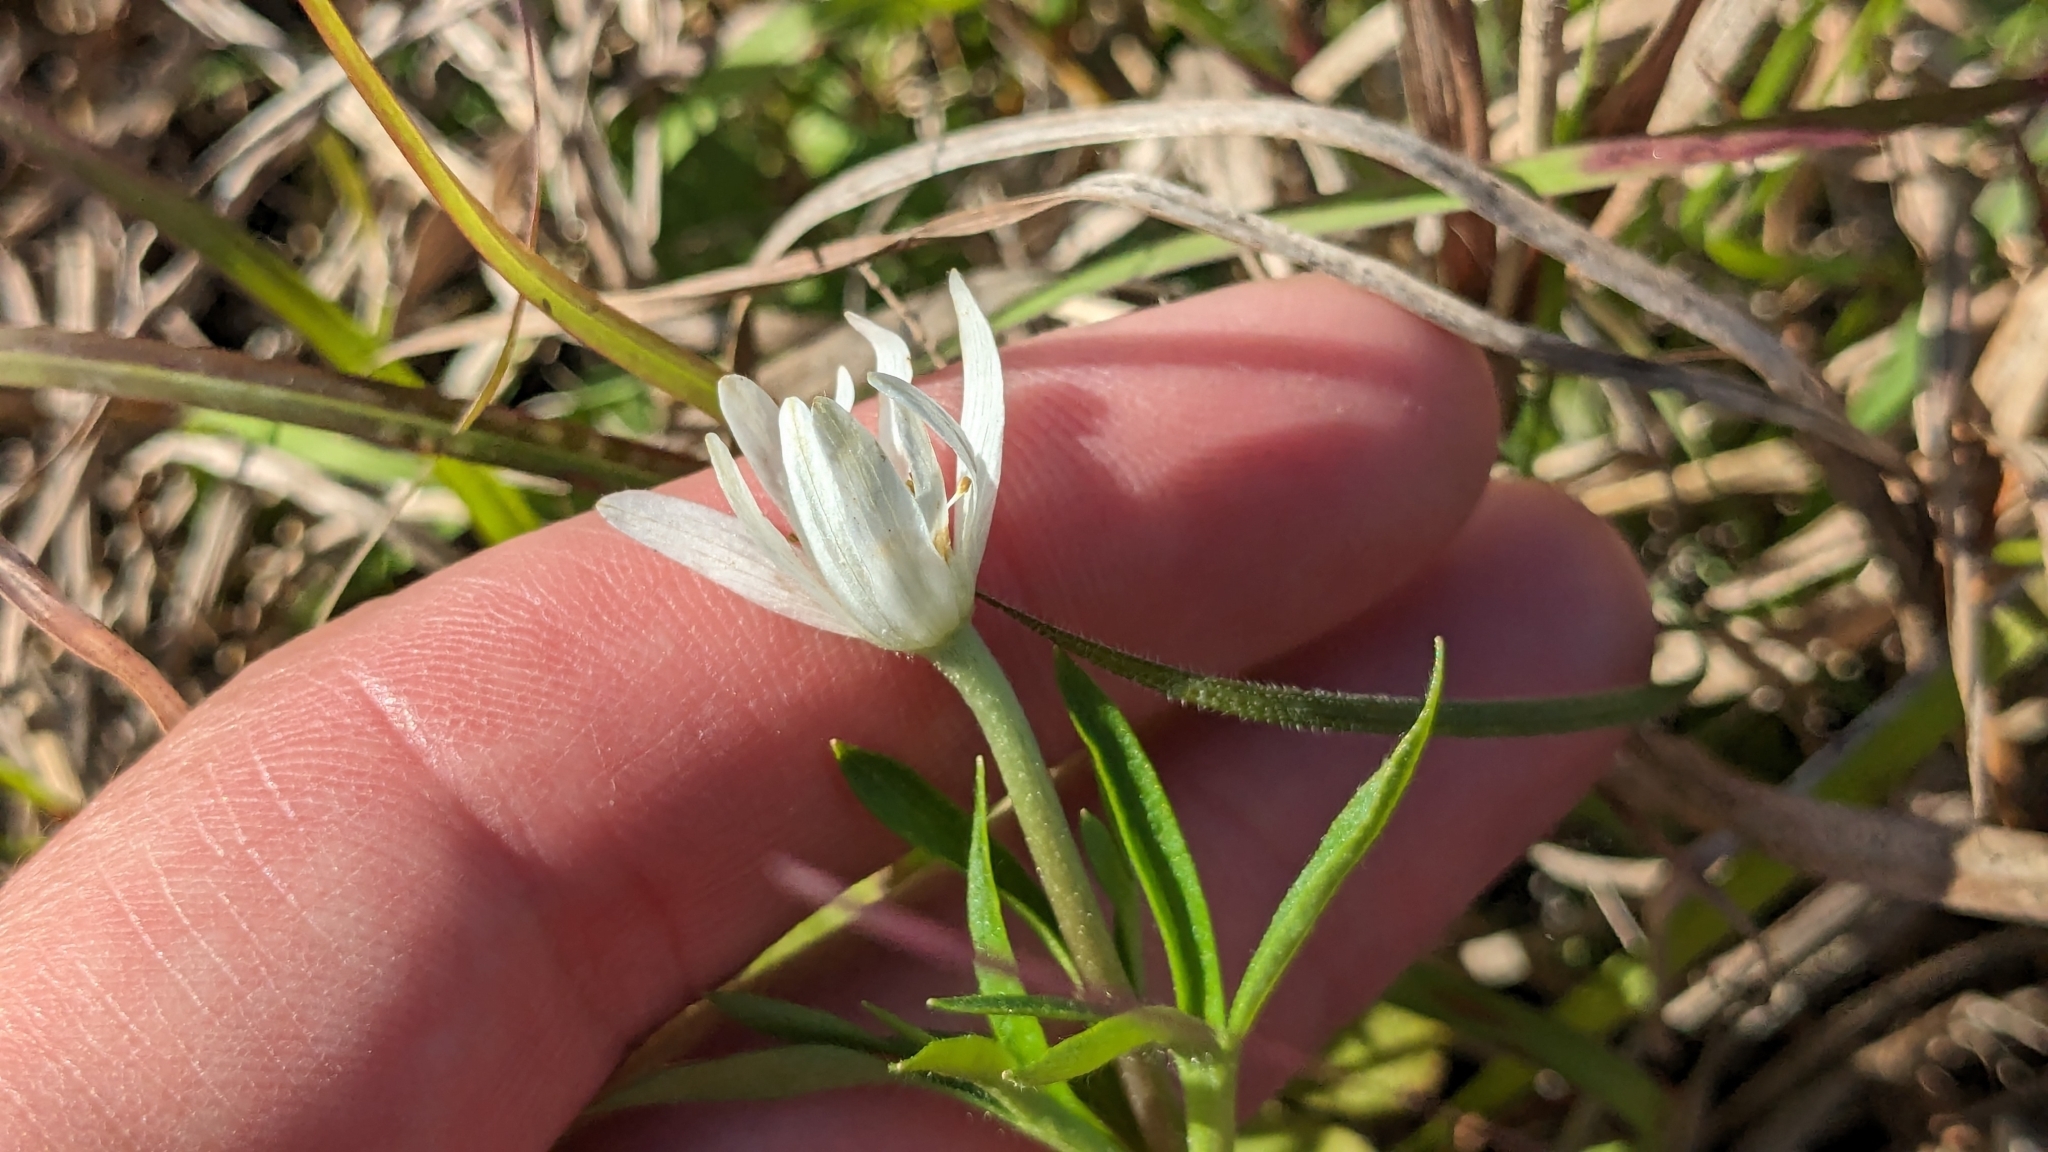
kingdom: Plantae
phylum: Tracheophyta
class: Magnoliopsida
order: Ranunculales
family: Ranunculaceae
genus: Anemone
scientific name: Anemone berlandieri
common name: Ten-petal anemone
